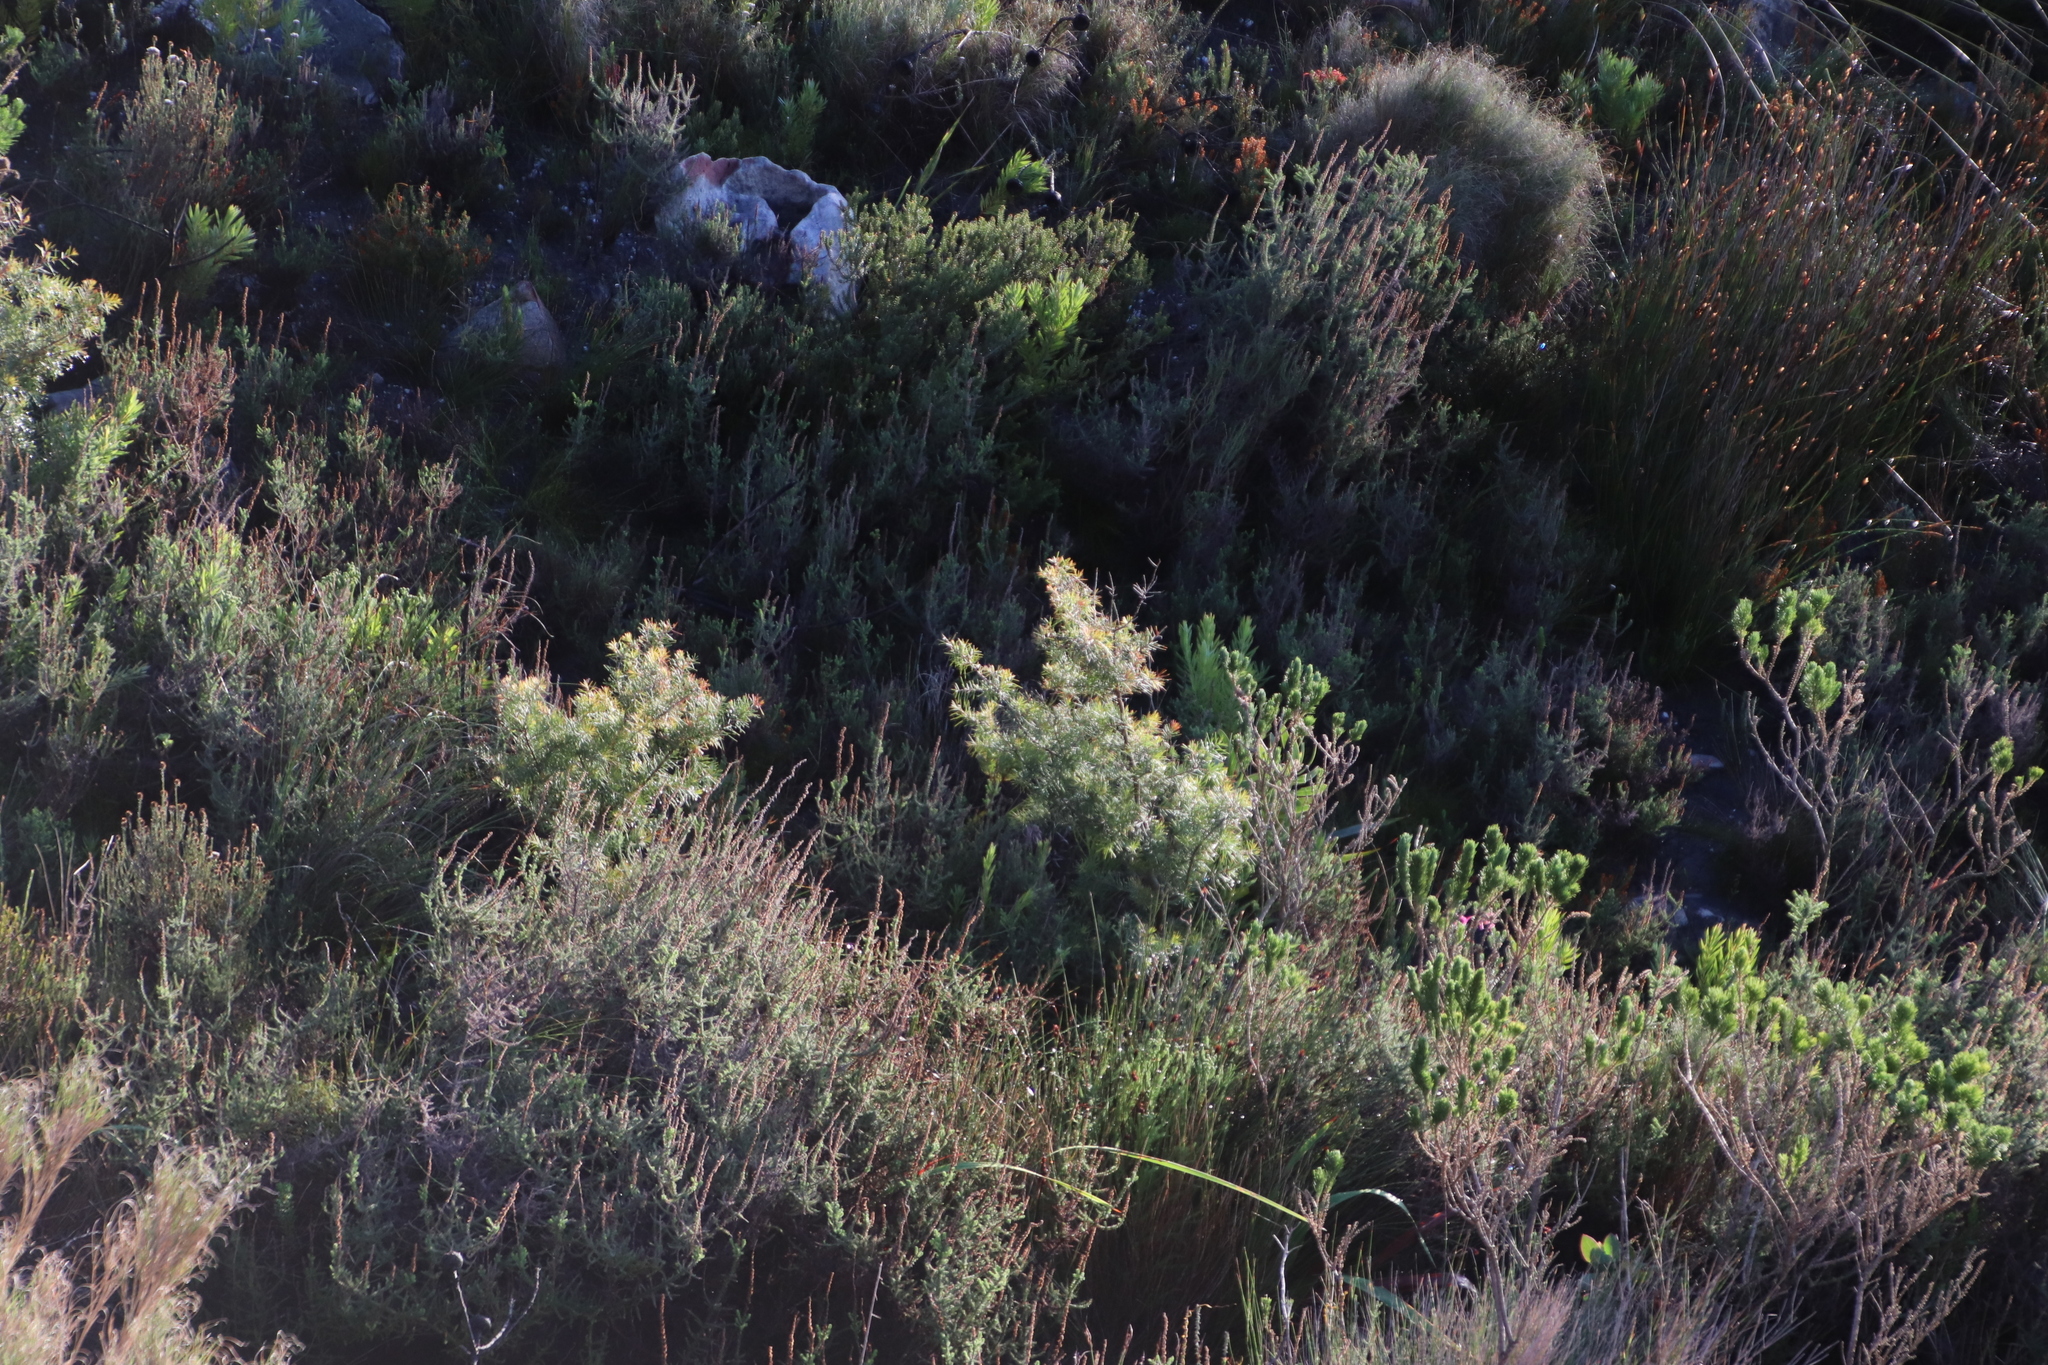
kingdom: Plantae
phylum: Tracheophyta
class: Magnoliopsida
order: Proteales
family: Proteaceae
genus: Hakea
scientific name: Hakea gibbosa
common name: Rock hakea
